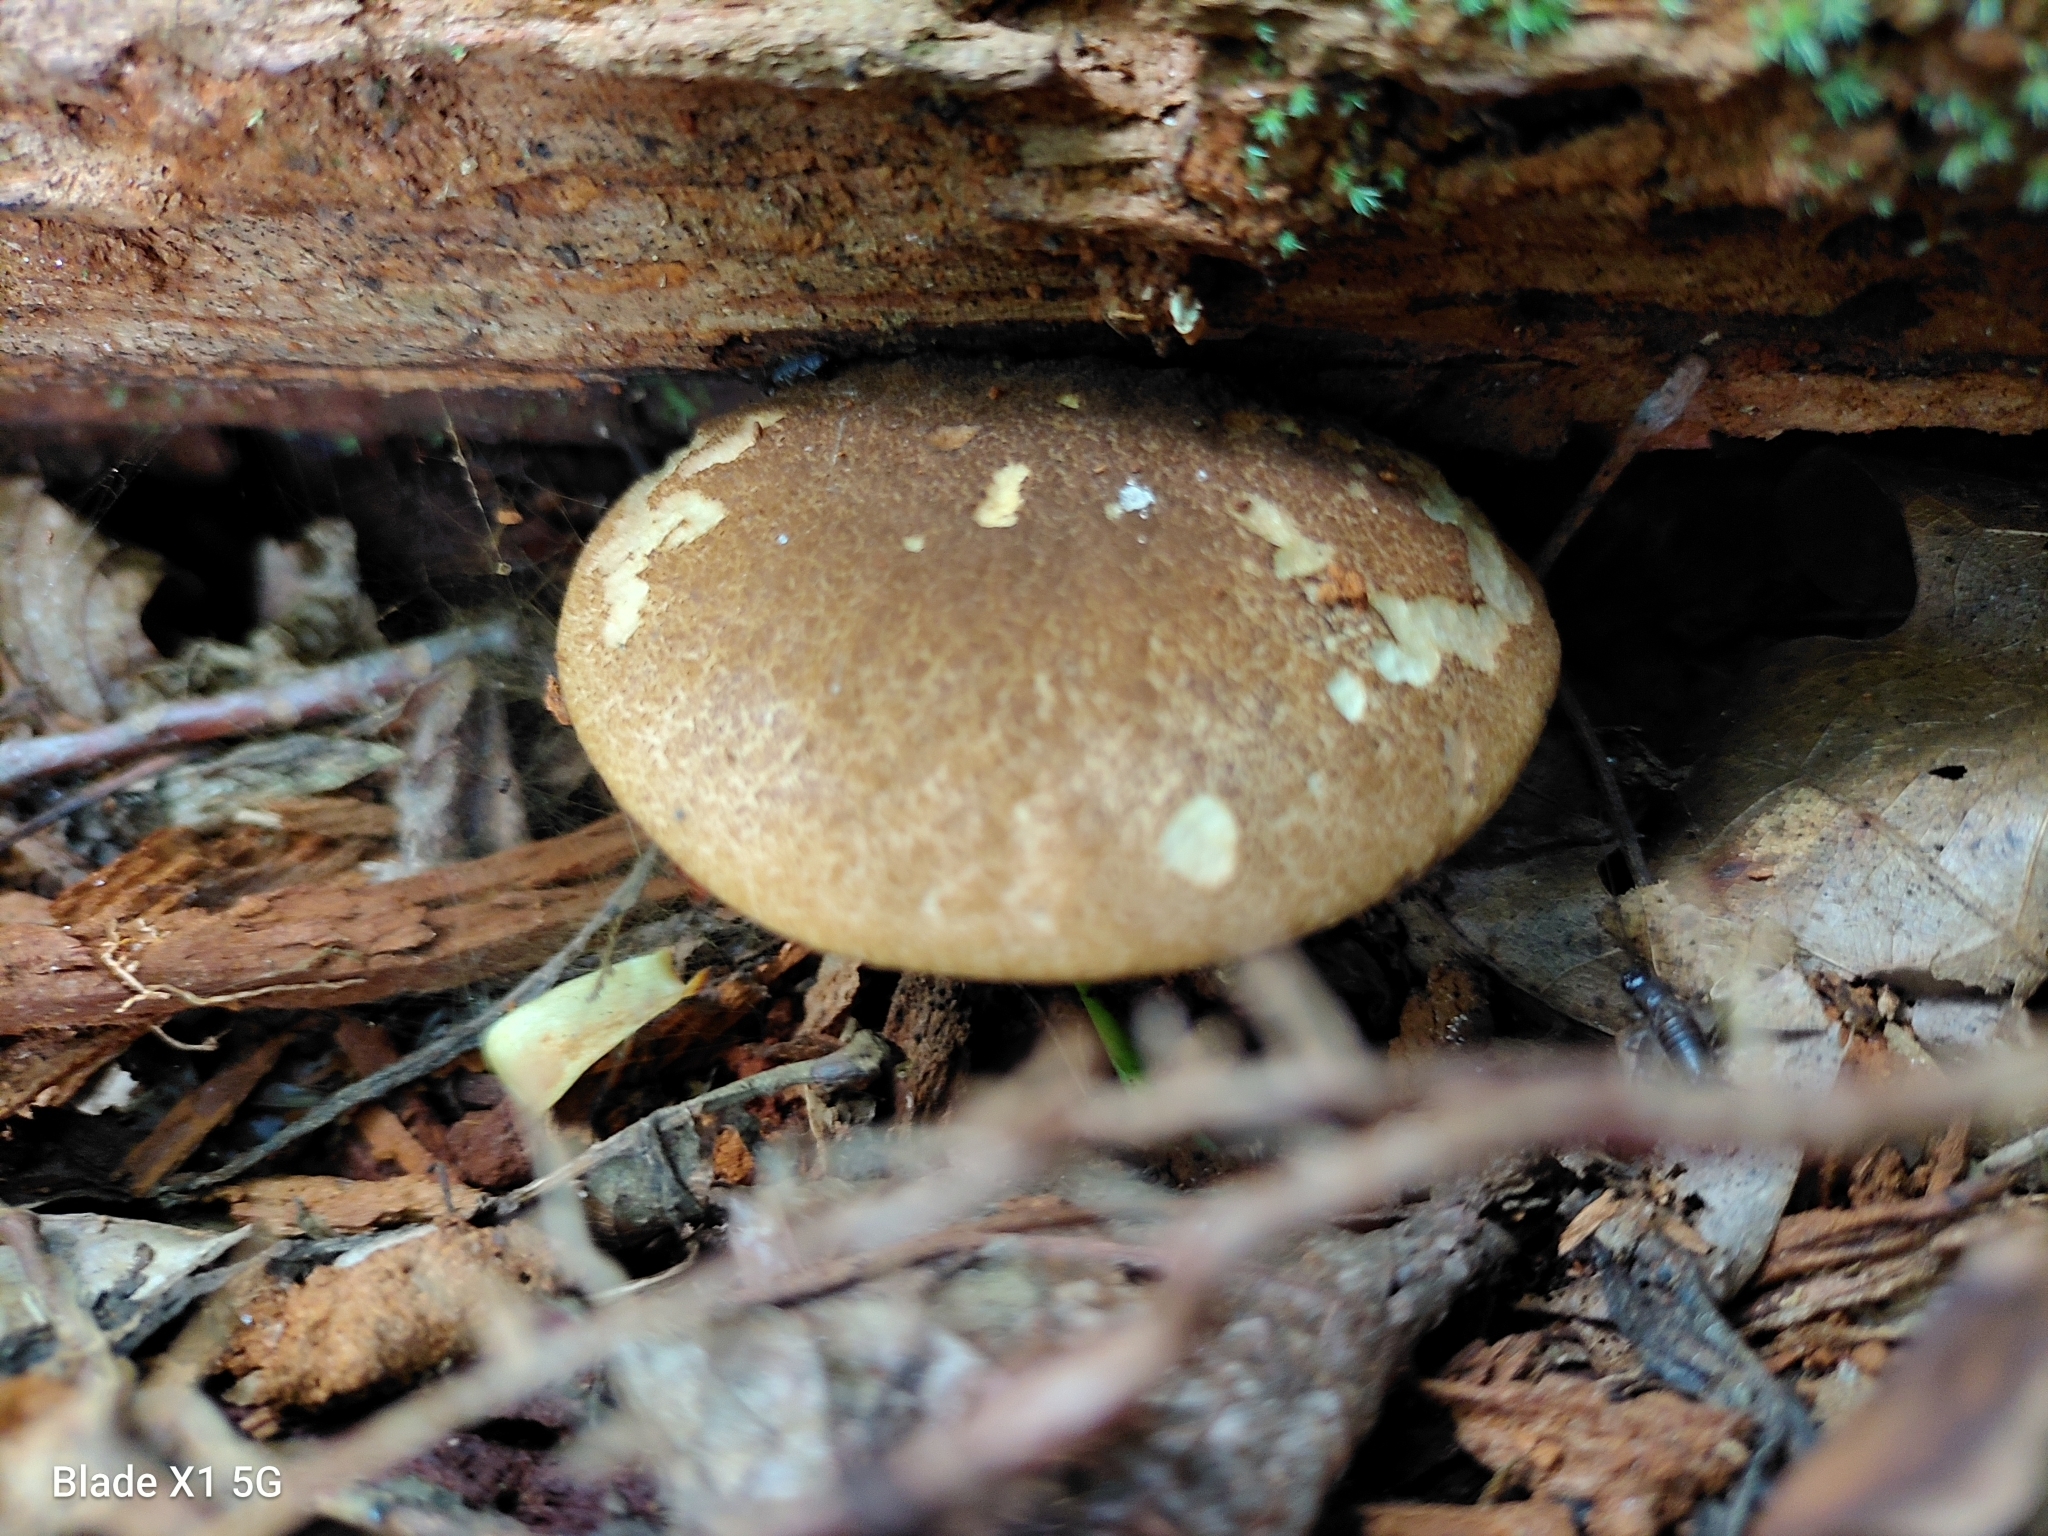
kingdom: Fungi
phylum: Basidiomycota
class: Agaricomycetes
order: Boletales
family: Boletaceae
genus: Boletellus
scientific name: Boletellus chrysenteroides
